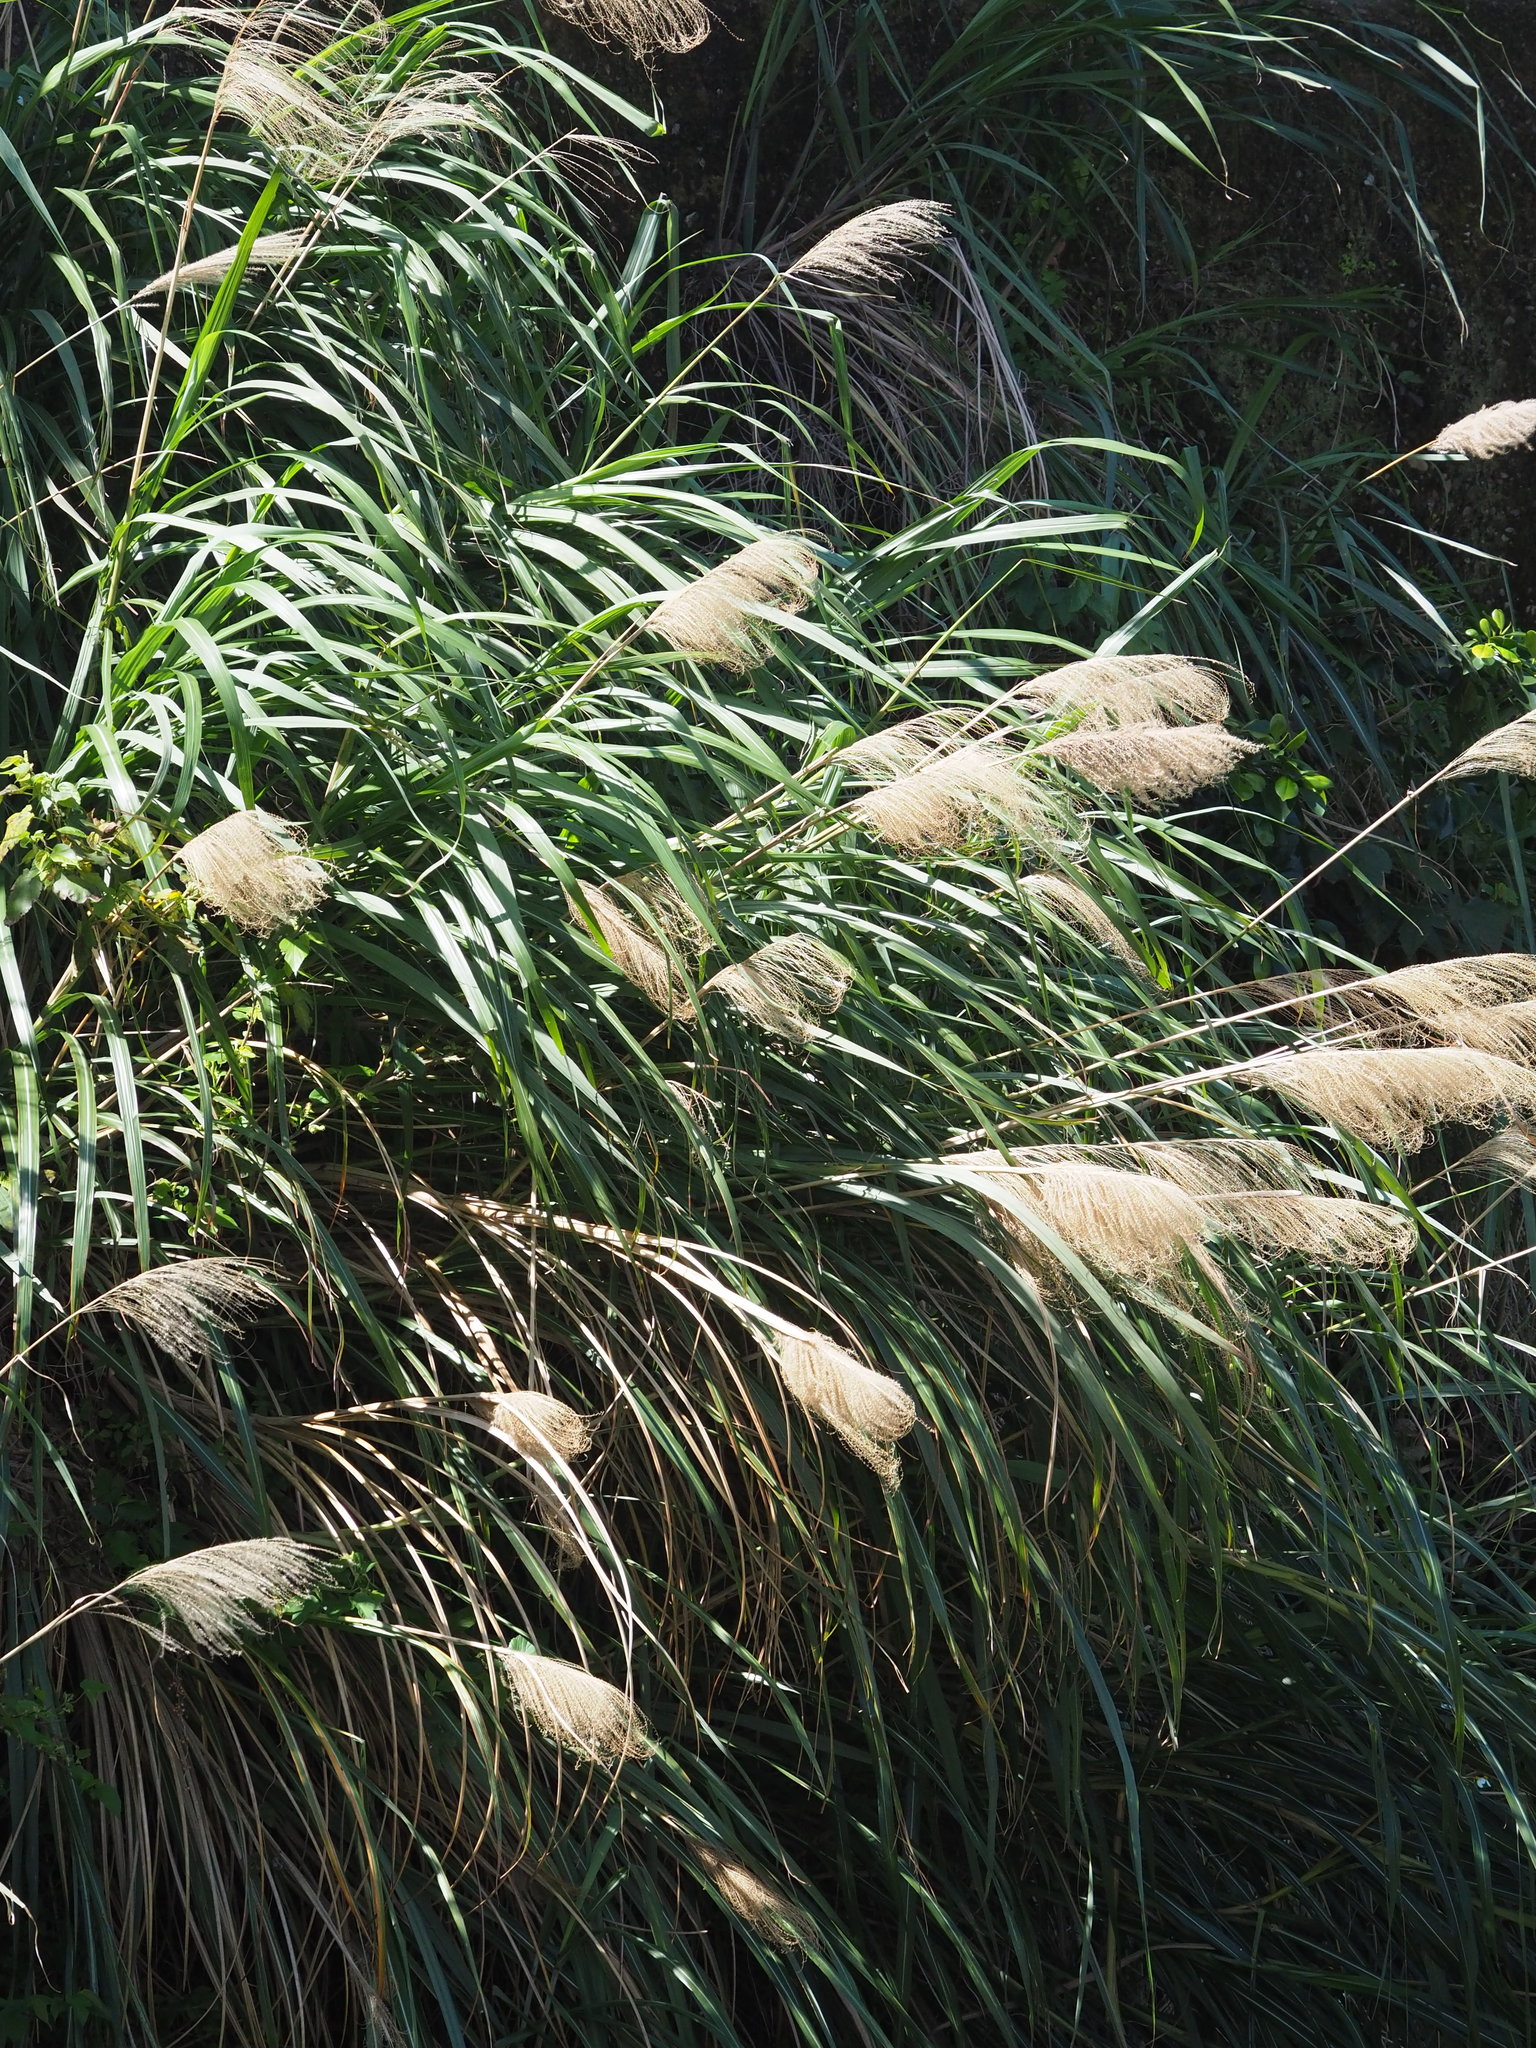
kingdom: Plantae
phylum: Tracheophyta
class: Liliopsida
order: Poales
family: Poaceae
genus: Miscanthus
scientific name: Miscanthus sinensis
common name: Chinese silvergrass
